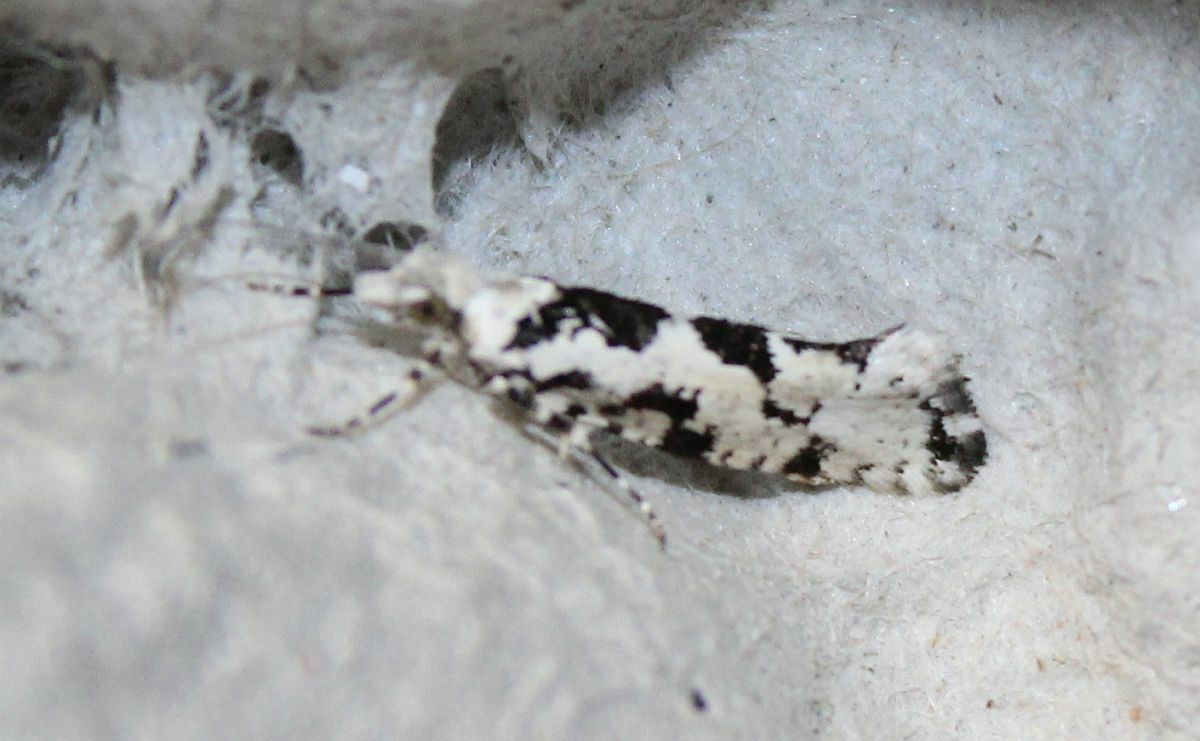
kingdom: Animalia
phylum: Arthropoda
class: Insecta
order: Lepidoptera
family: Plutellidae
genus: Ypsolophus
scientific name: Ypsolophus sequella
